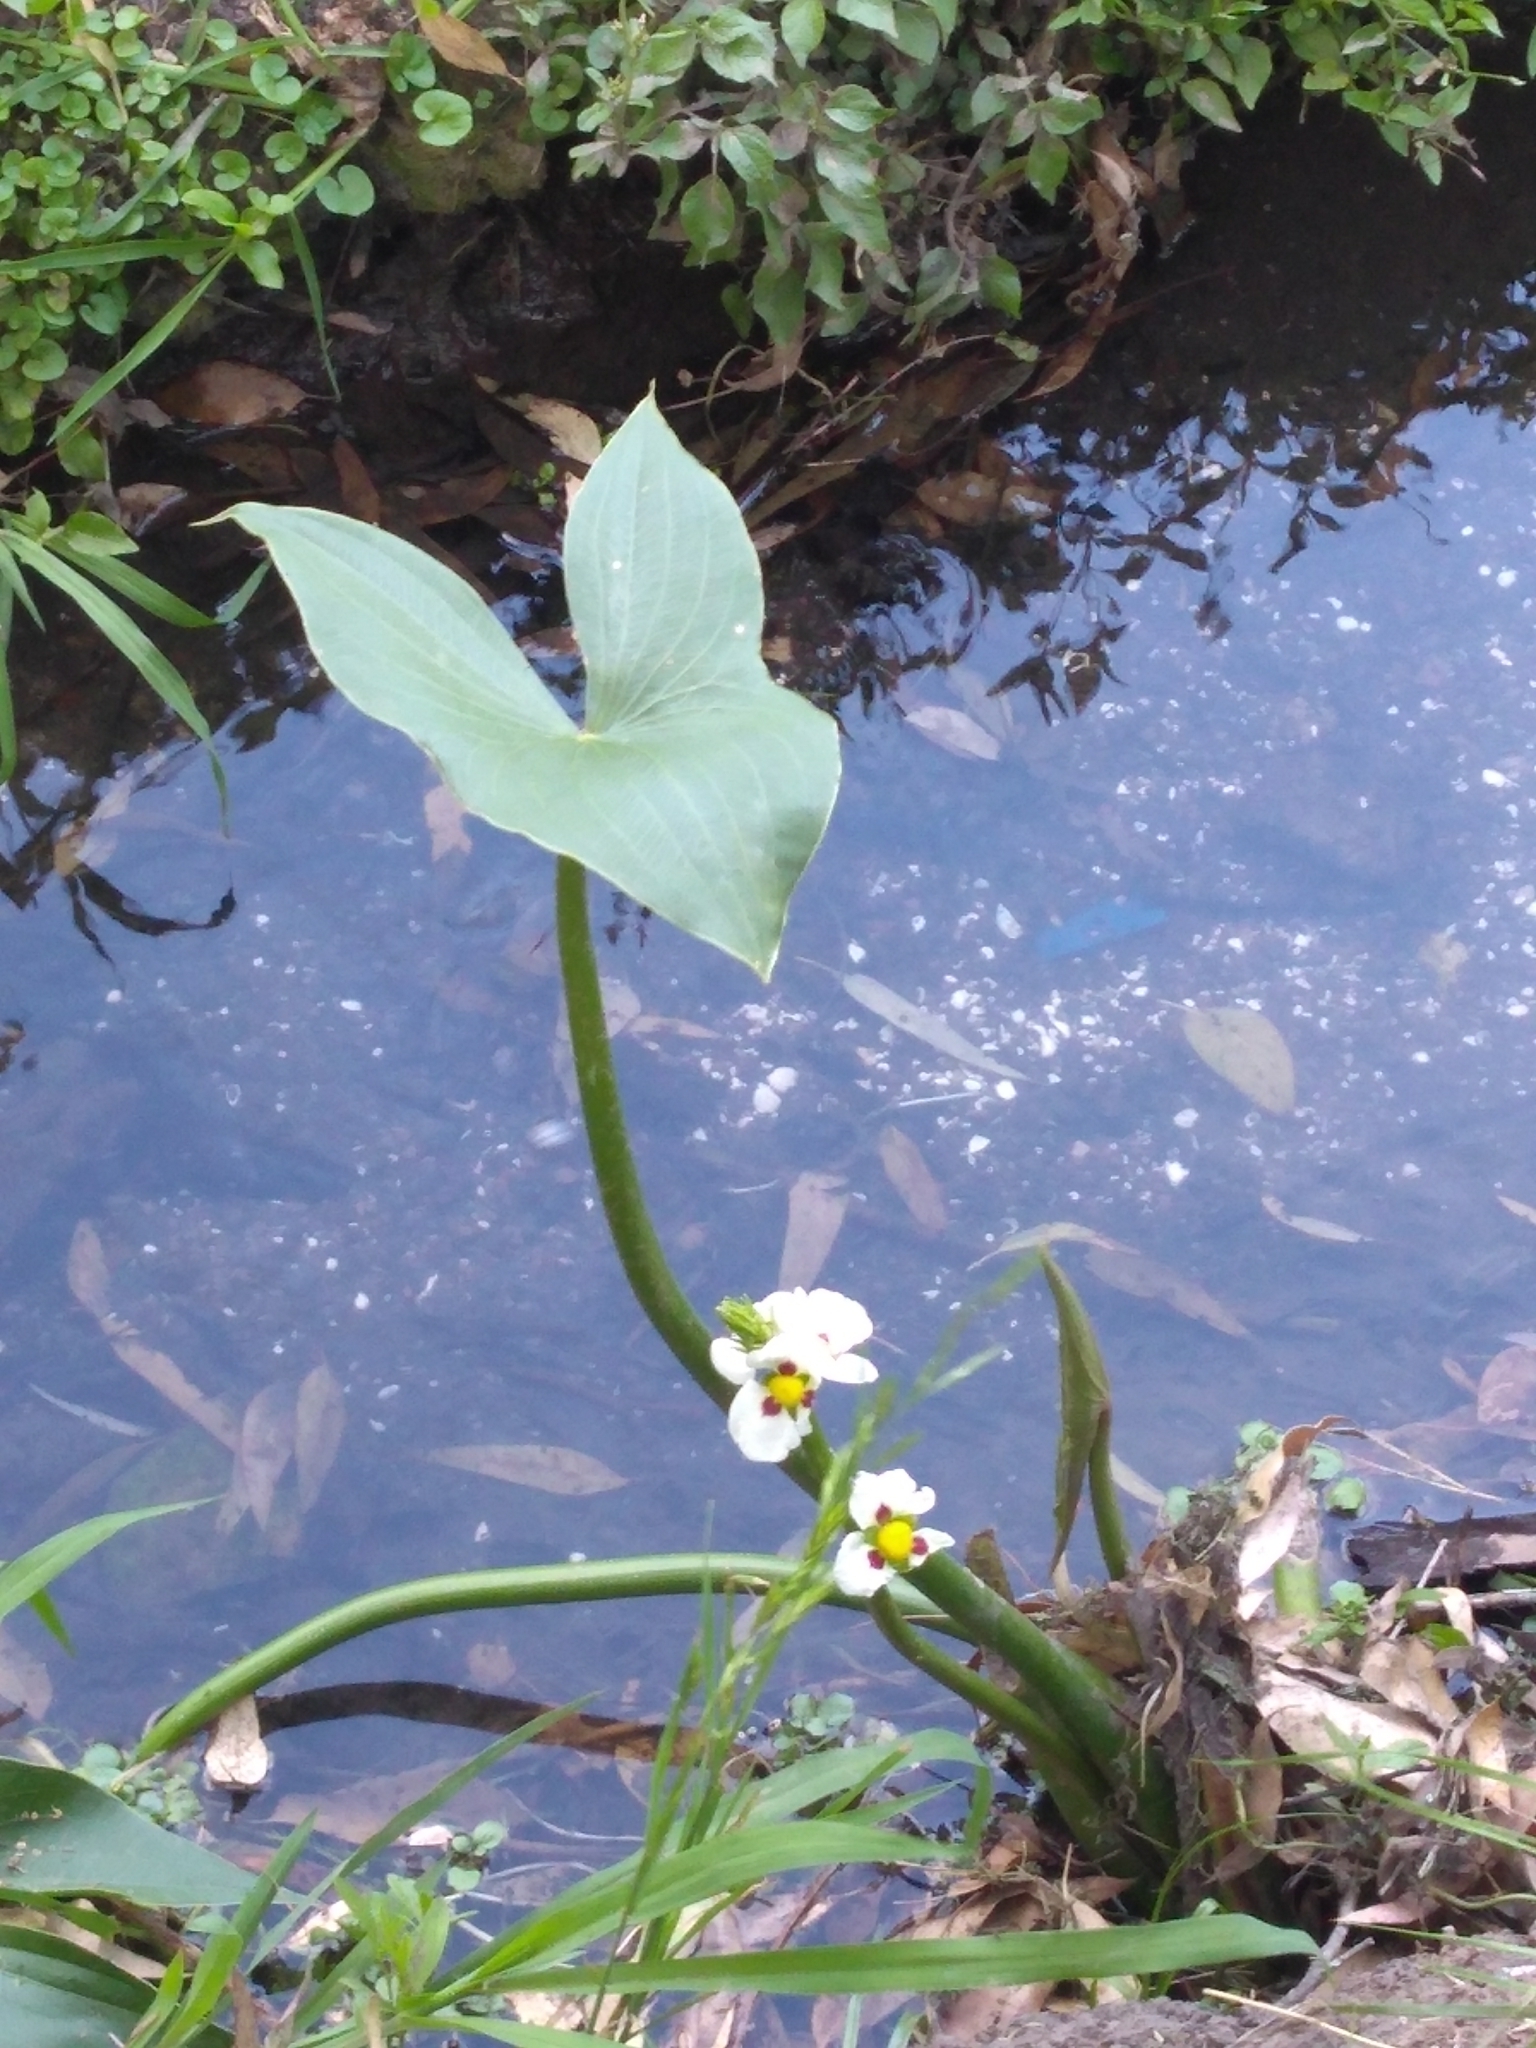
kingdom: Plantae
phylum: Tracheophyta
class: Liliopsida
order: Alismatales
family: Alismataceae
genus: Sagittaria
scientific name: Sagittaria montevidensis
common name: Giant arrowhead
